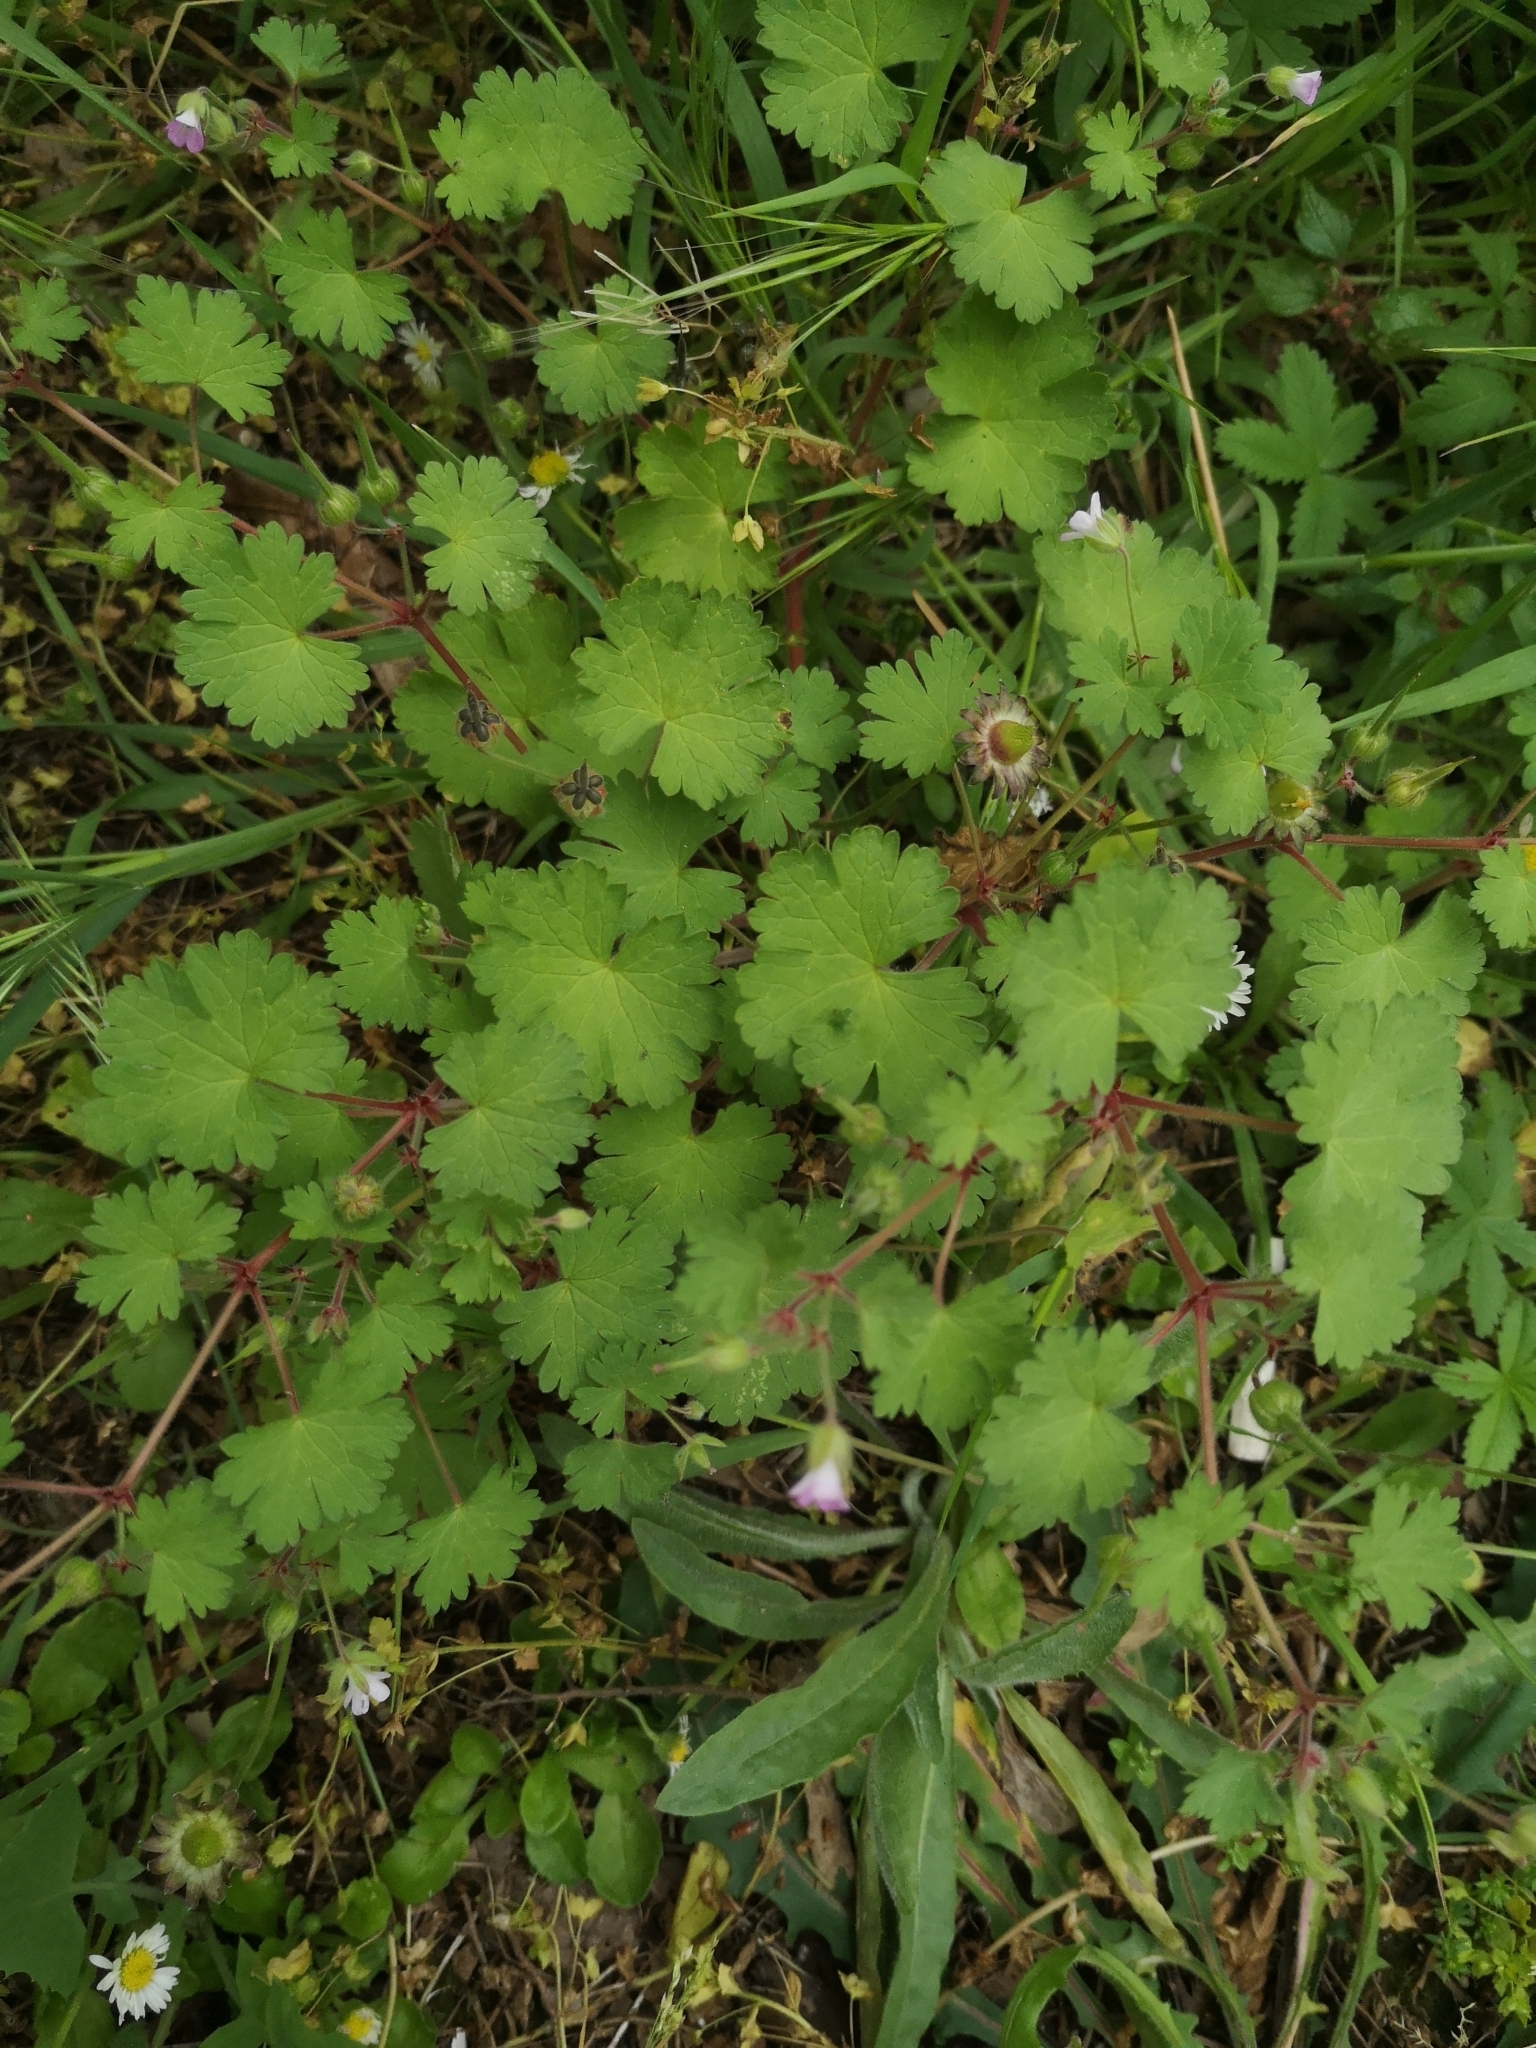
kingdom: Plantae
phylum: Tracheophyta
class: Magnoliopsida
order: Geraniales
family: Geraniaceae
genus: Geranium
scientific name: Geranium rotundifolium
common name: Round-leaved crane's-bill
